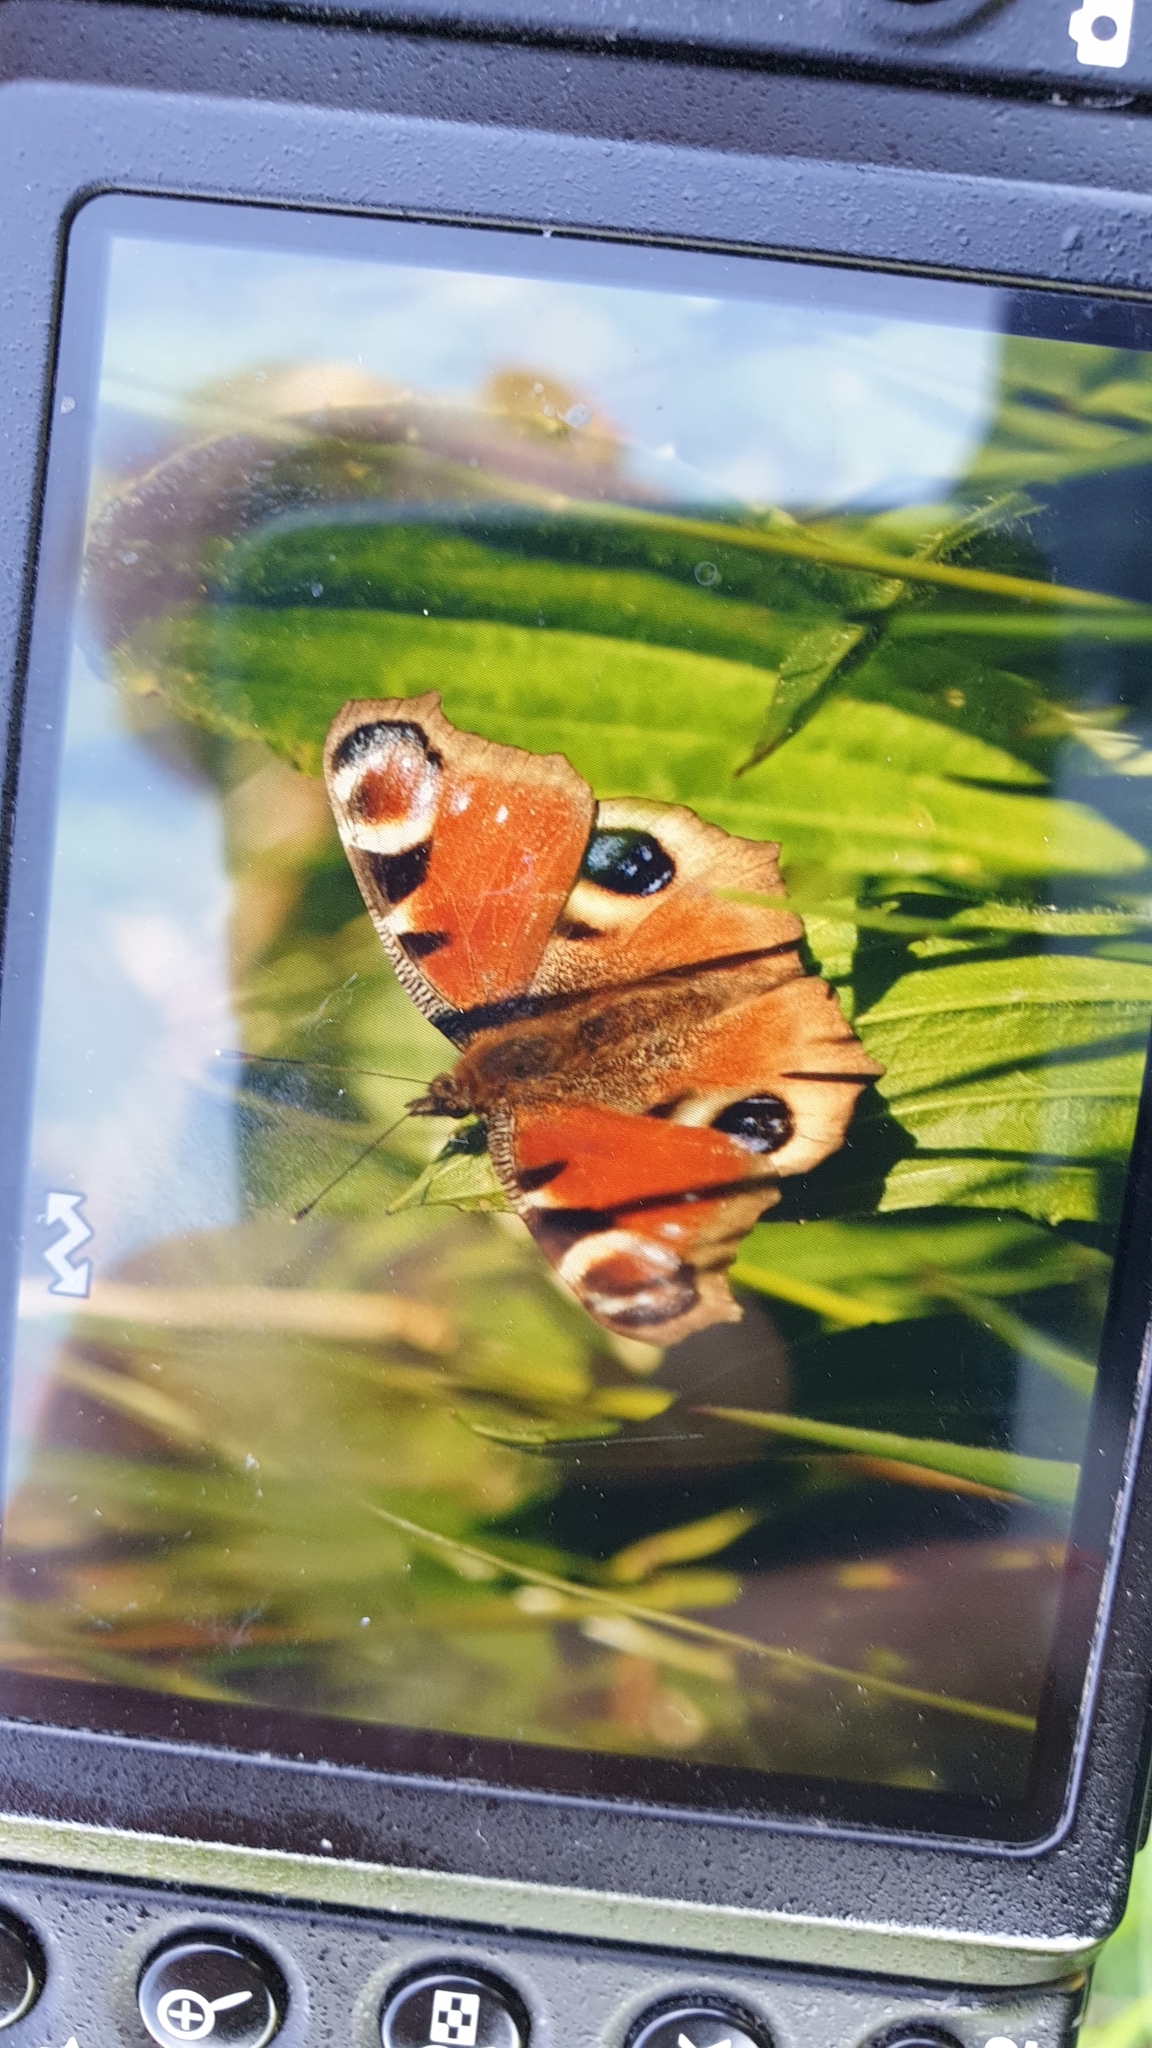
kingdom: Animalia
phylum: Arthropoda
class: Insecta
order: Lepidoptera
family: Nymphalidae
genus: Aglais
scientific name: Aglais io
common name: Peacock
